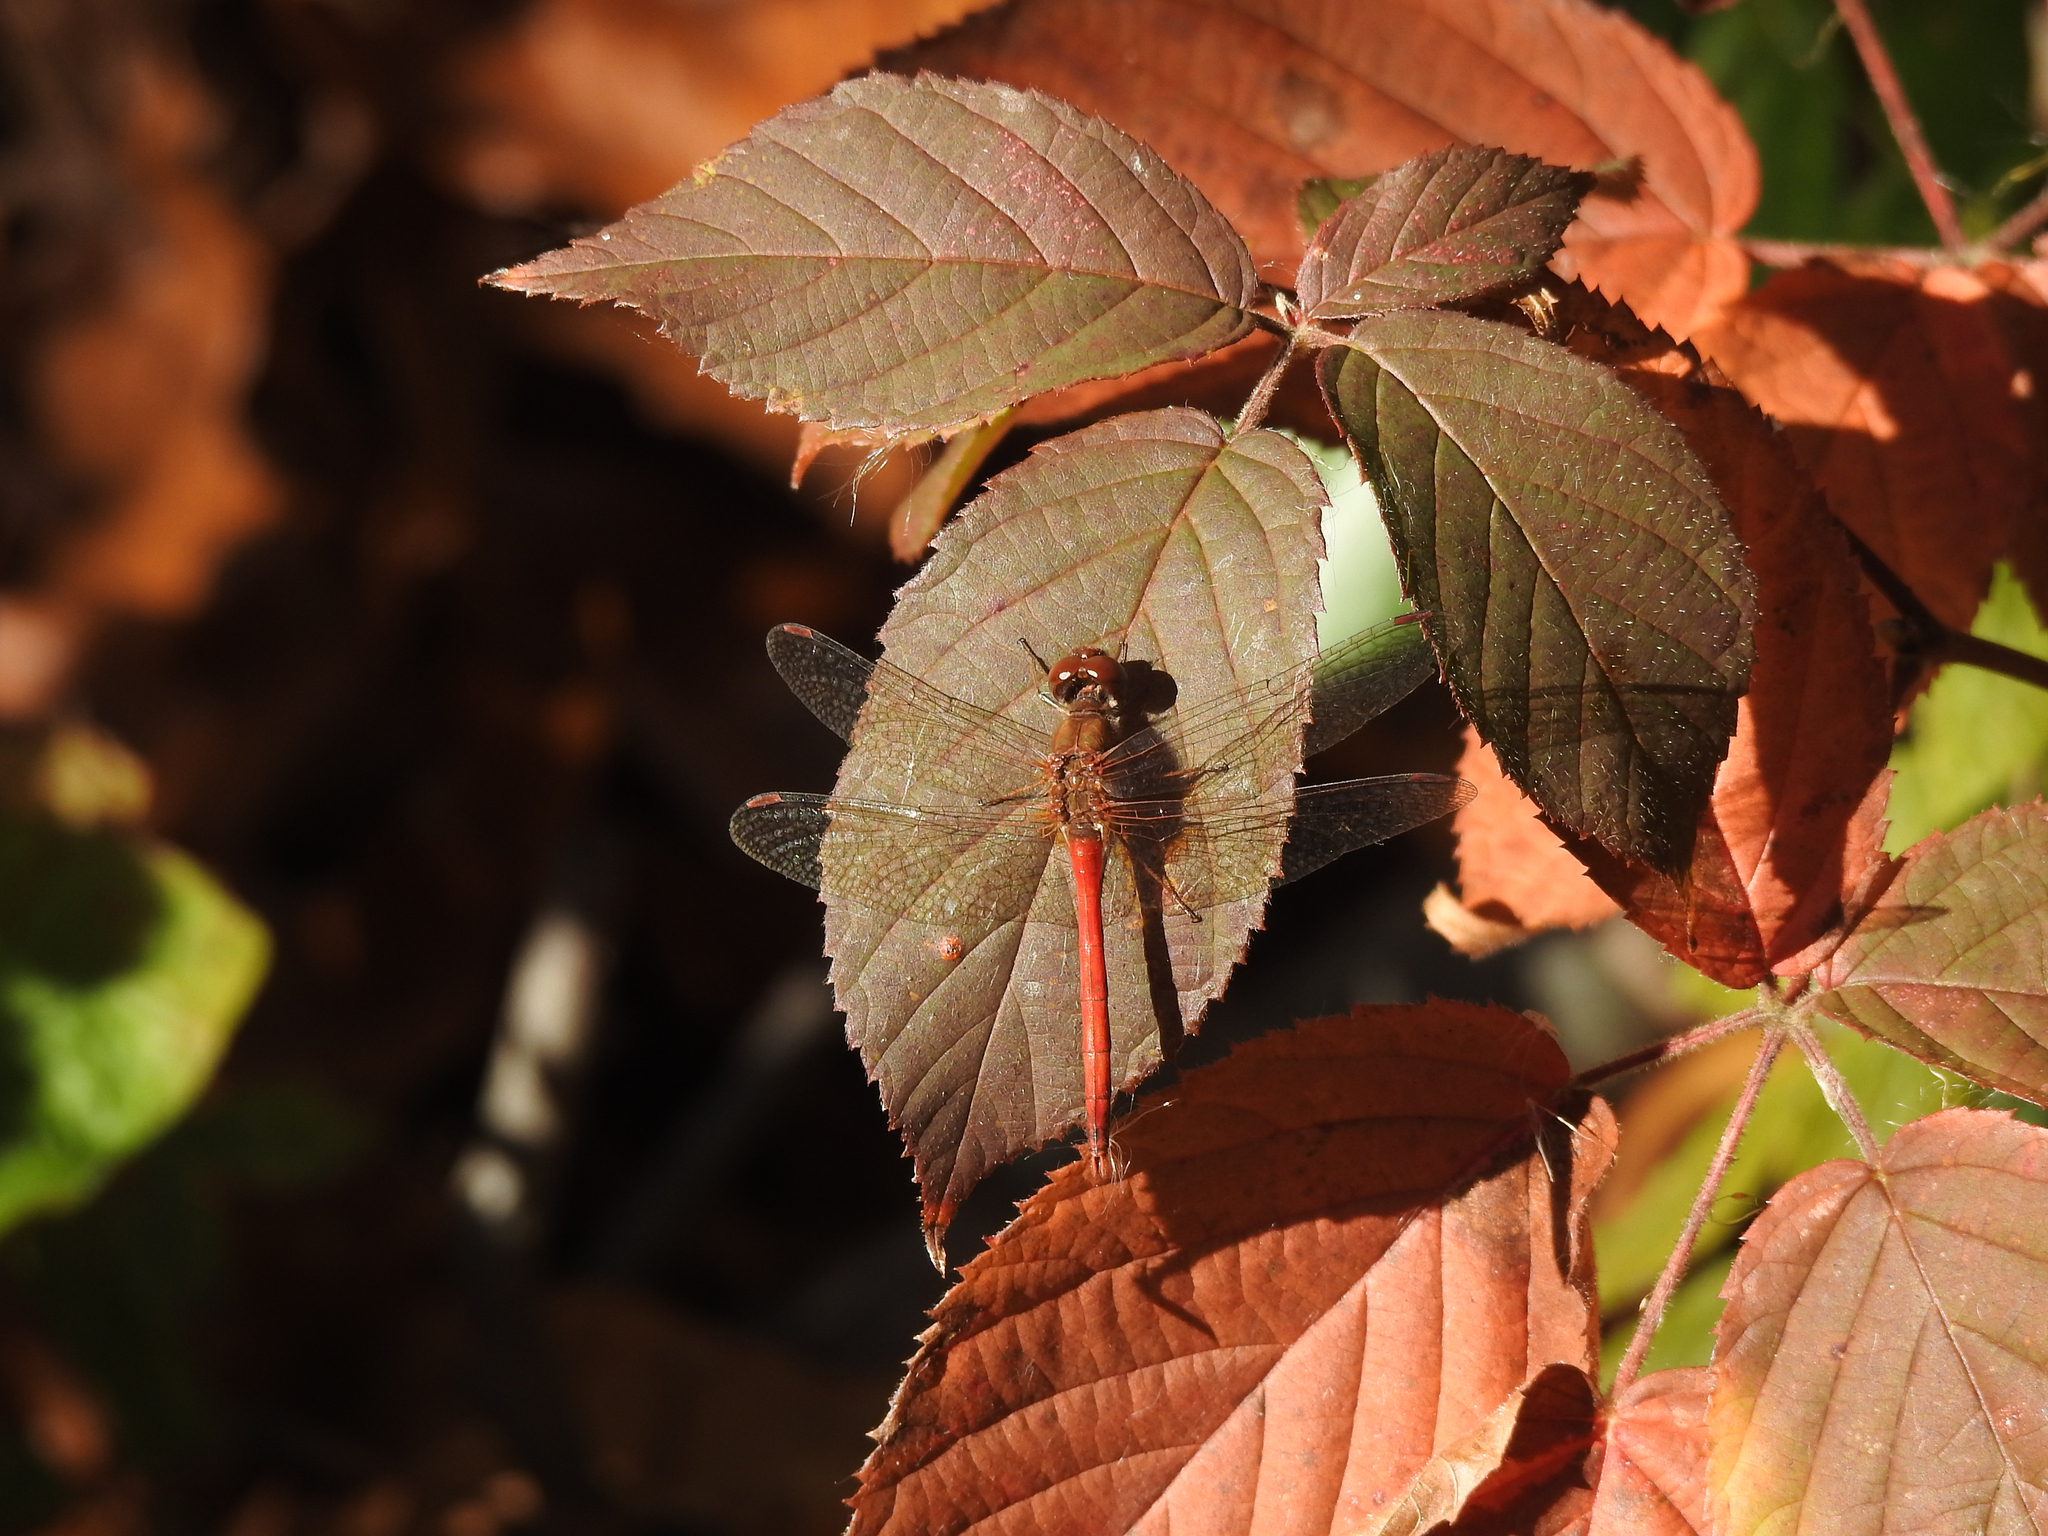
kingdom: Animalia
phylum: Arthropoda
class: Insecta
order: Odonata
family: Libellulidae
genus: Sympetrum
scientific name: Sympetrum vicinum
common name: Autumn meadowhawk
